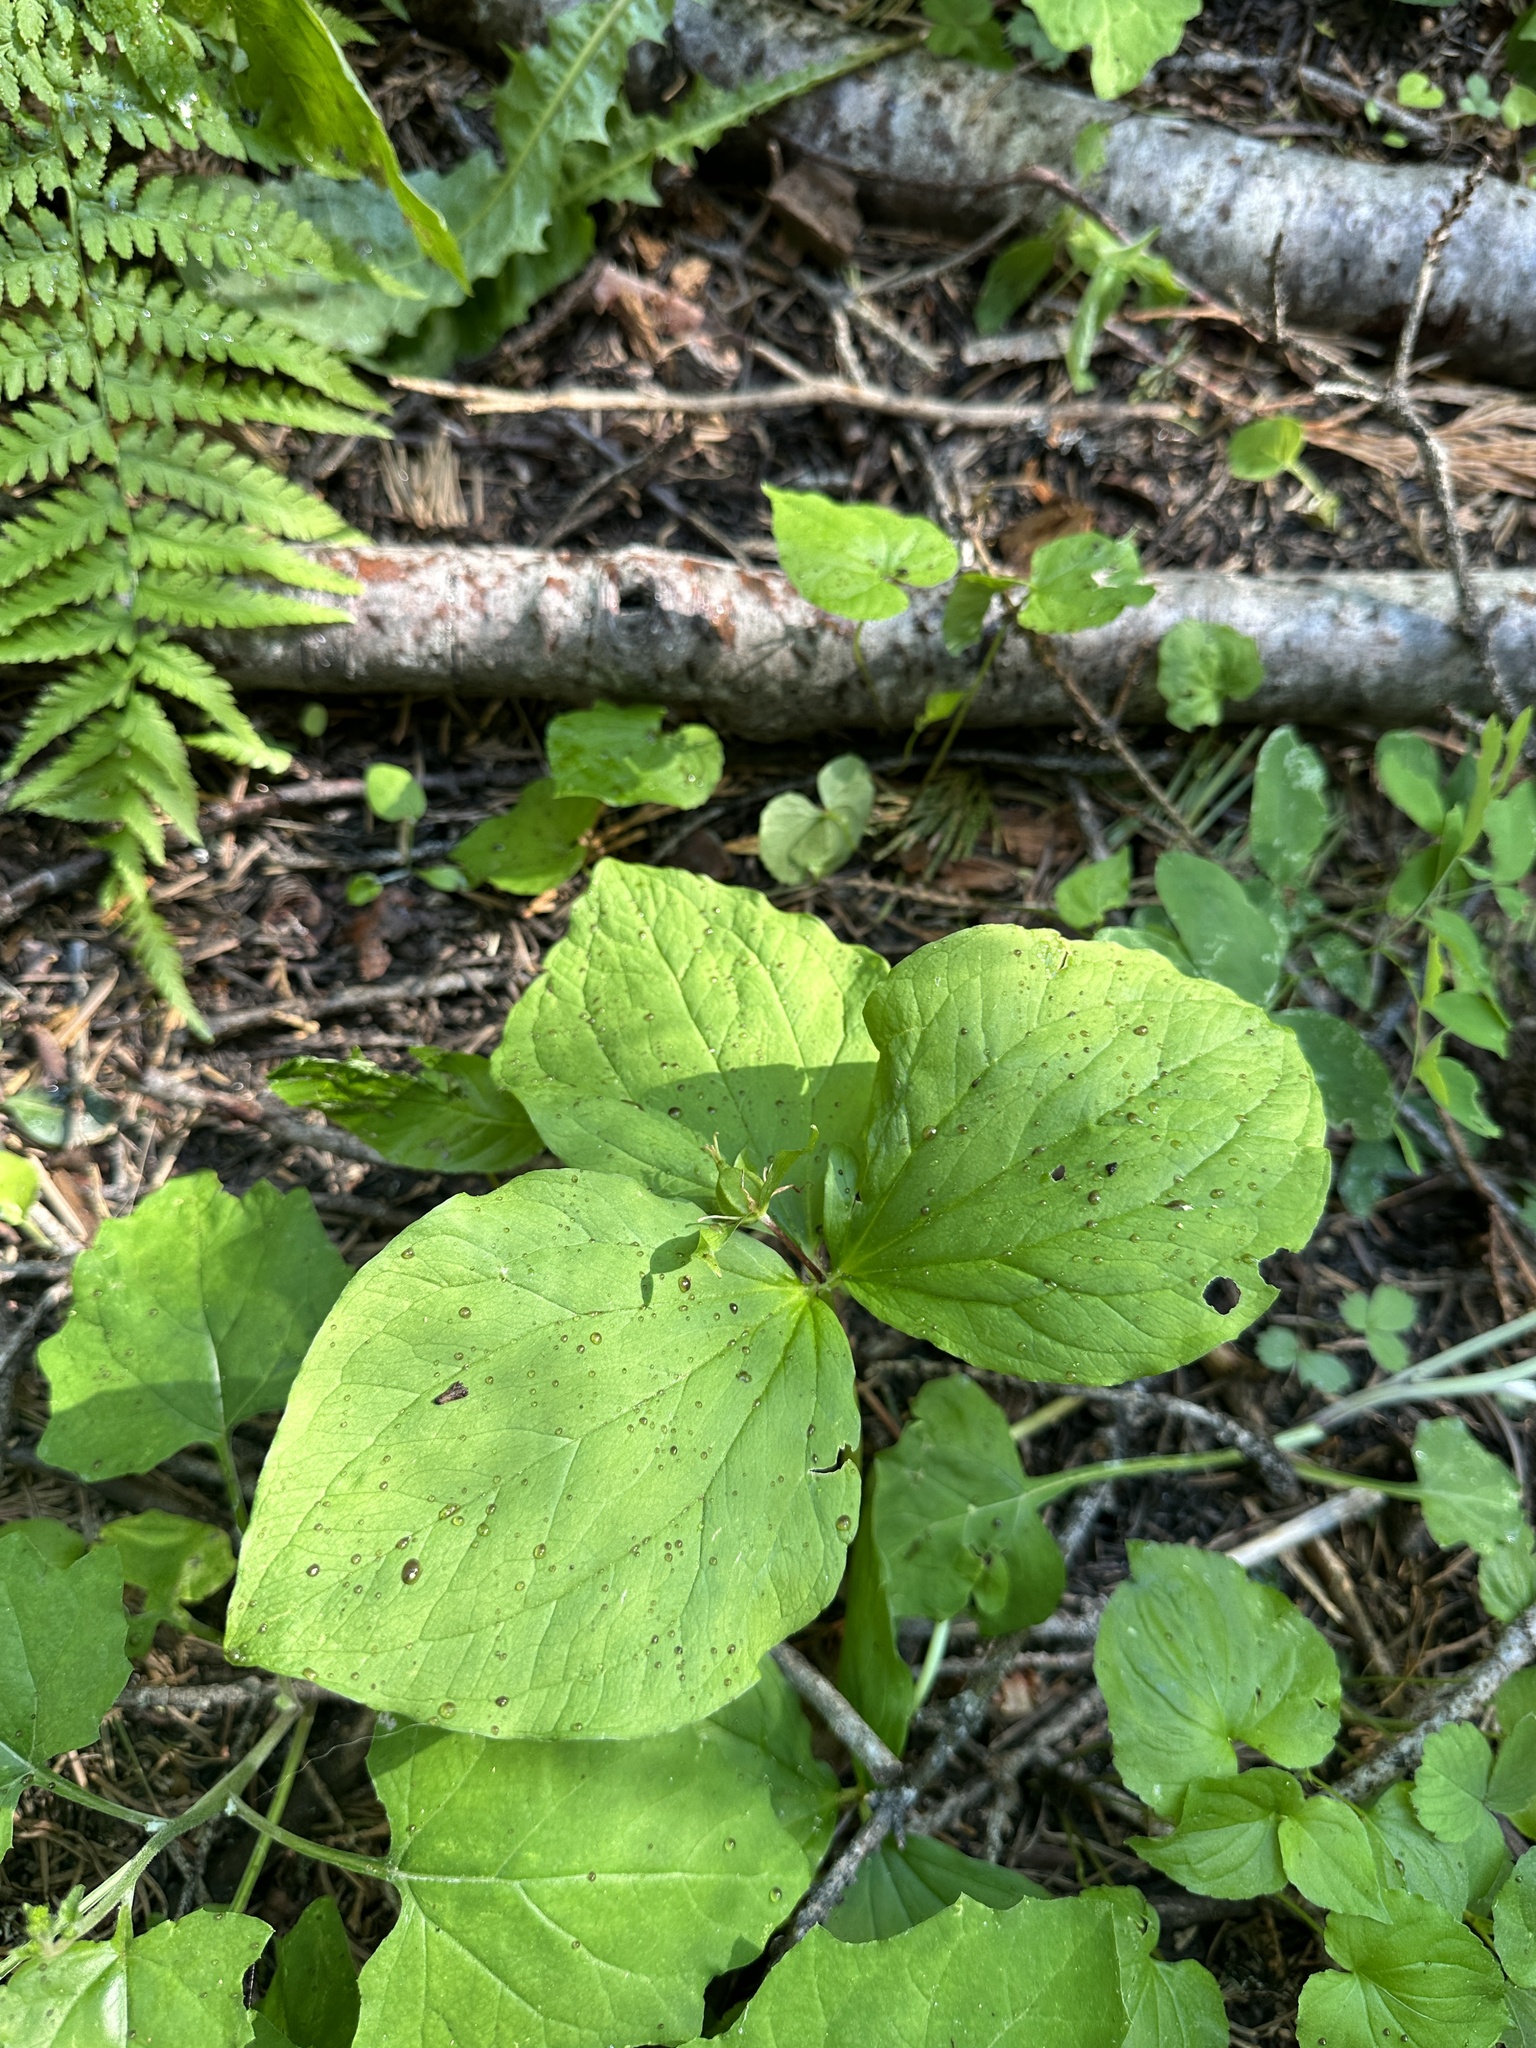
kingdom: Plantae
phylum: Tracheophyta
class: Liliopsida
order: Liliales
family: Melanthiaceae
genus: Trillium
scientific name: Trillium ovatum
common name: Pacific trillium
